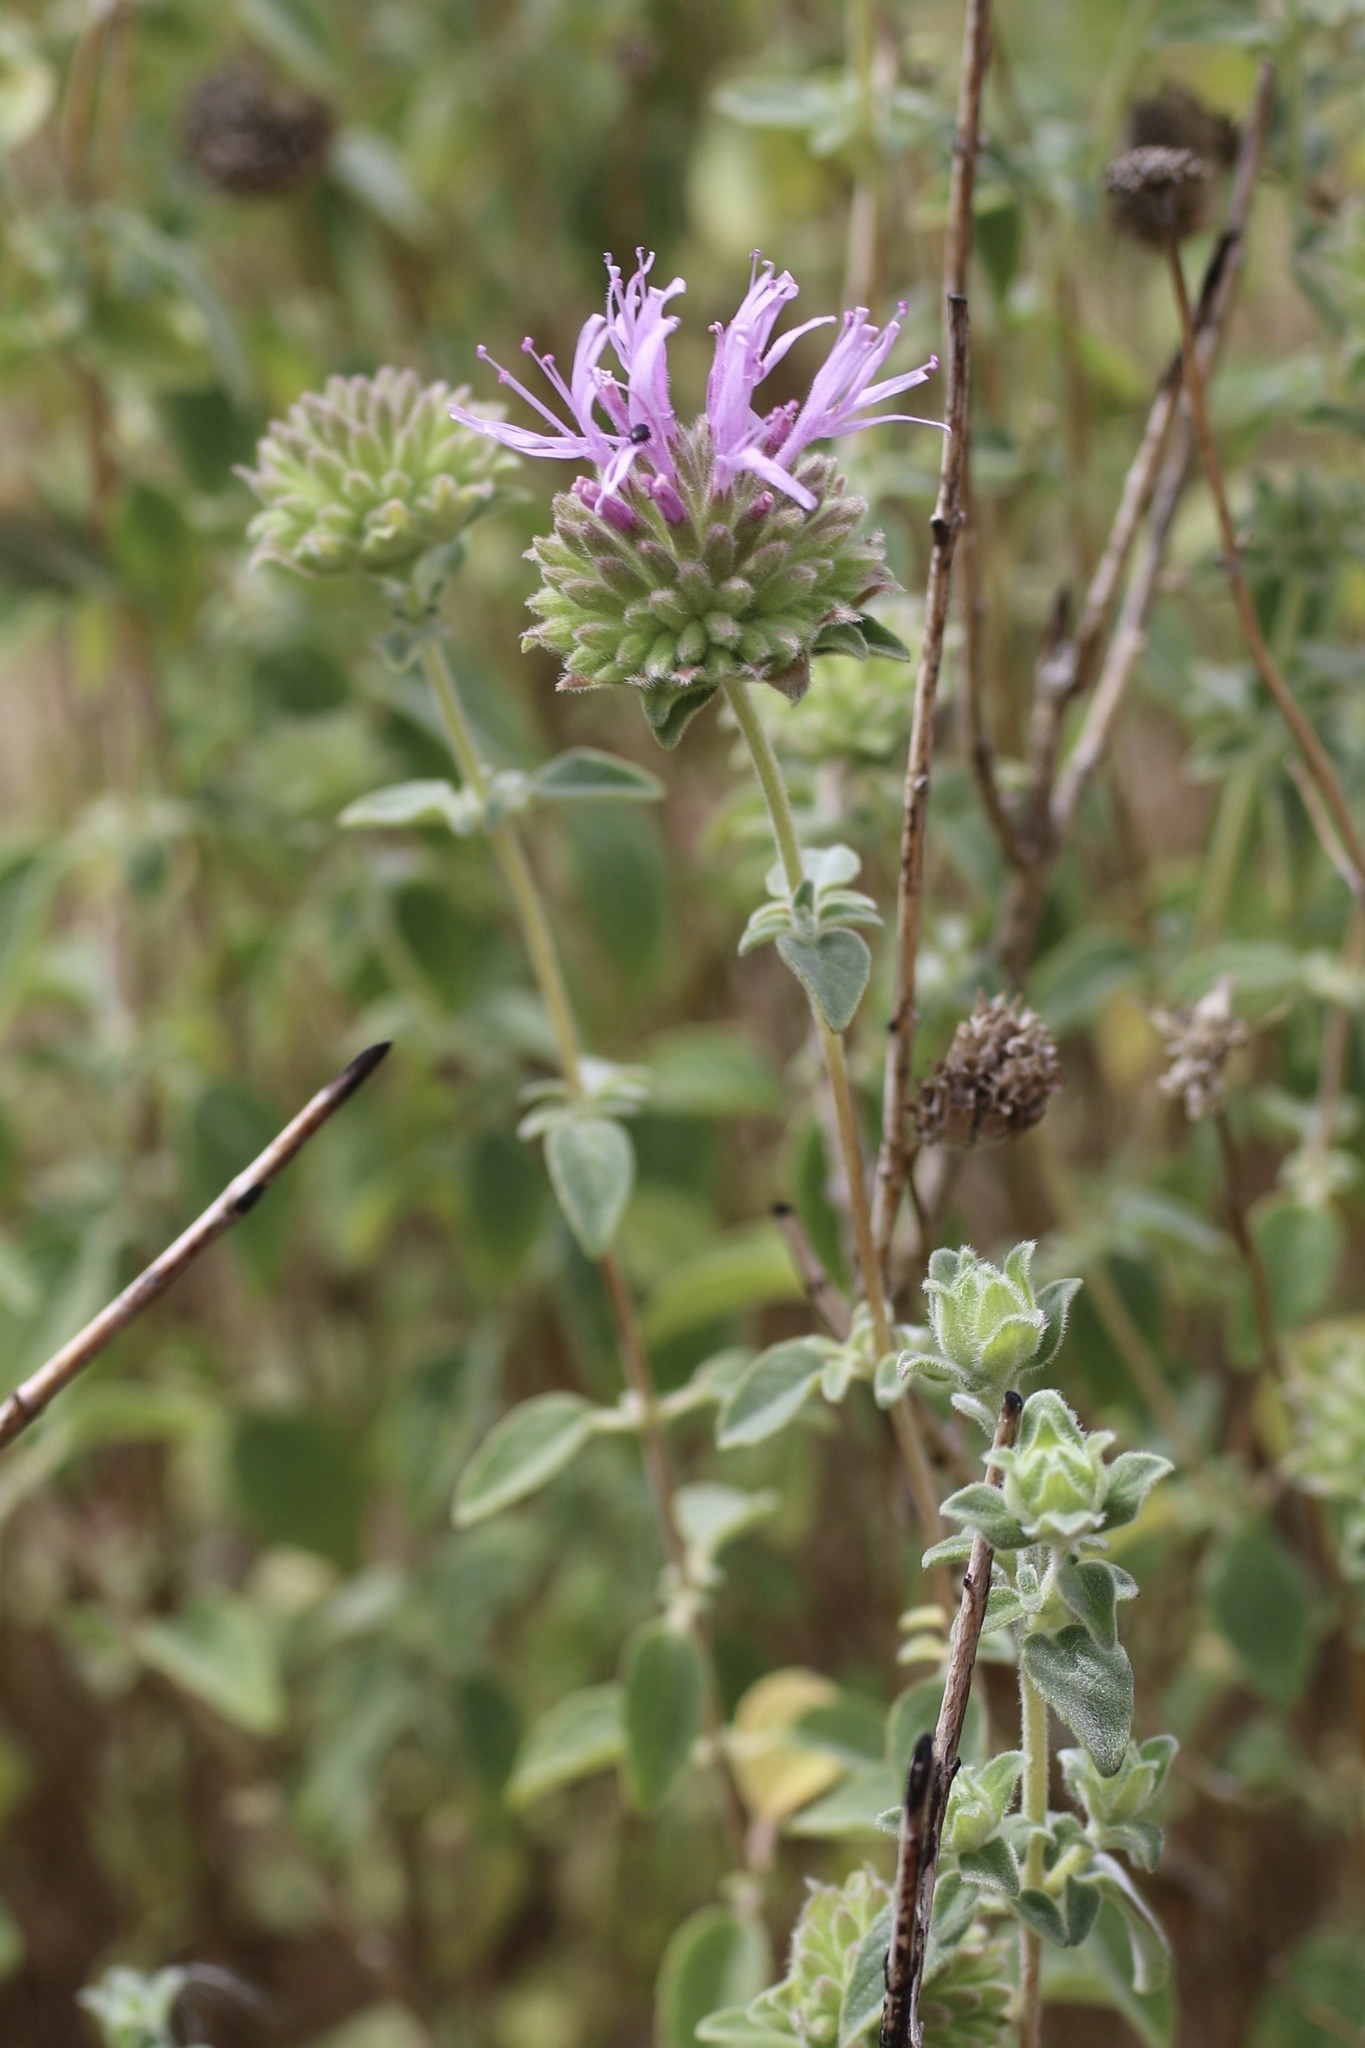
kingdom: Plantae
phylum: Tracheophyta
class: Magnoliopsida
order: Lamiales
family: Lamiaceae
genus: Monardella
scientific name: Monardella odoratissima
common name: Pacific monardella
